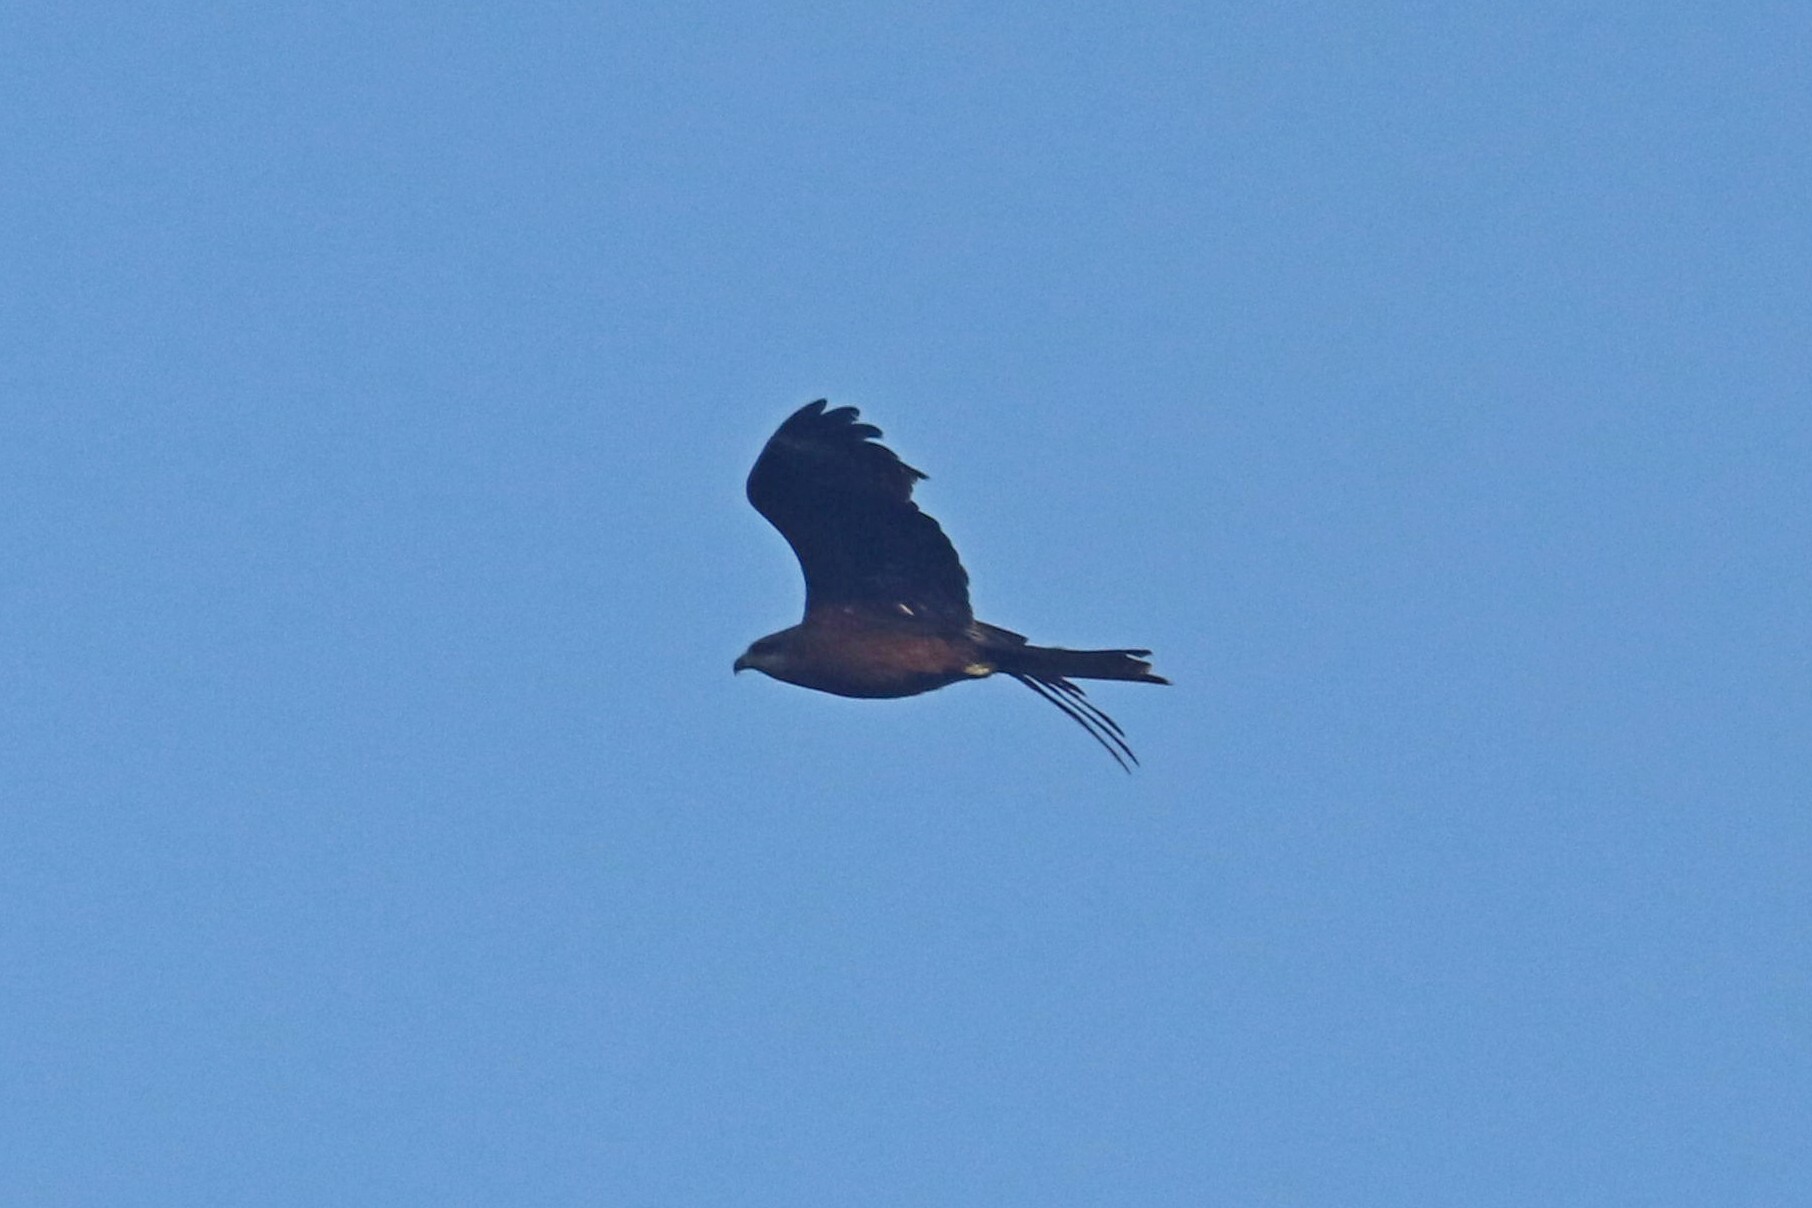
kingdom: Animalia
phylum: Chordata
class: Aves
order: Accipitriformes
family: Accipitridae
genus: Milvus
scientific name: Milvus migrans
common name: Black kite
